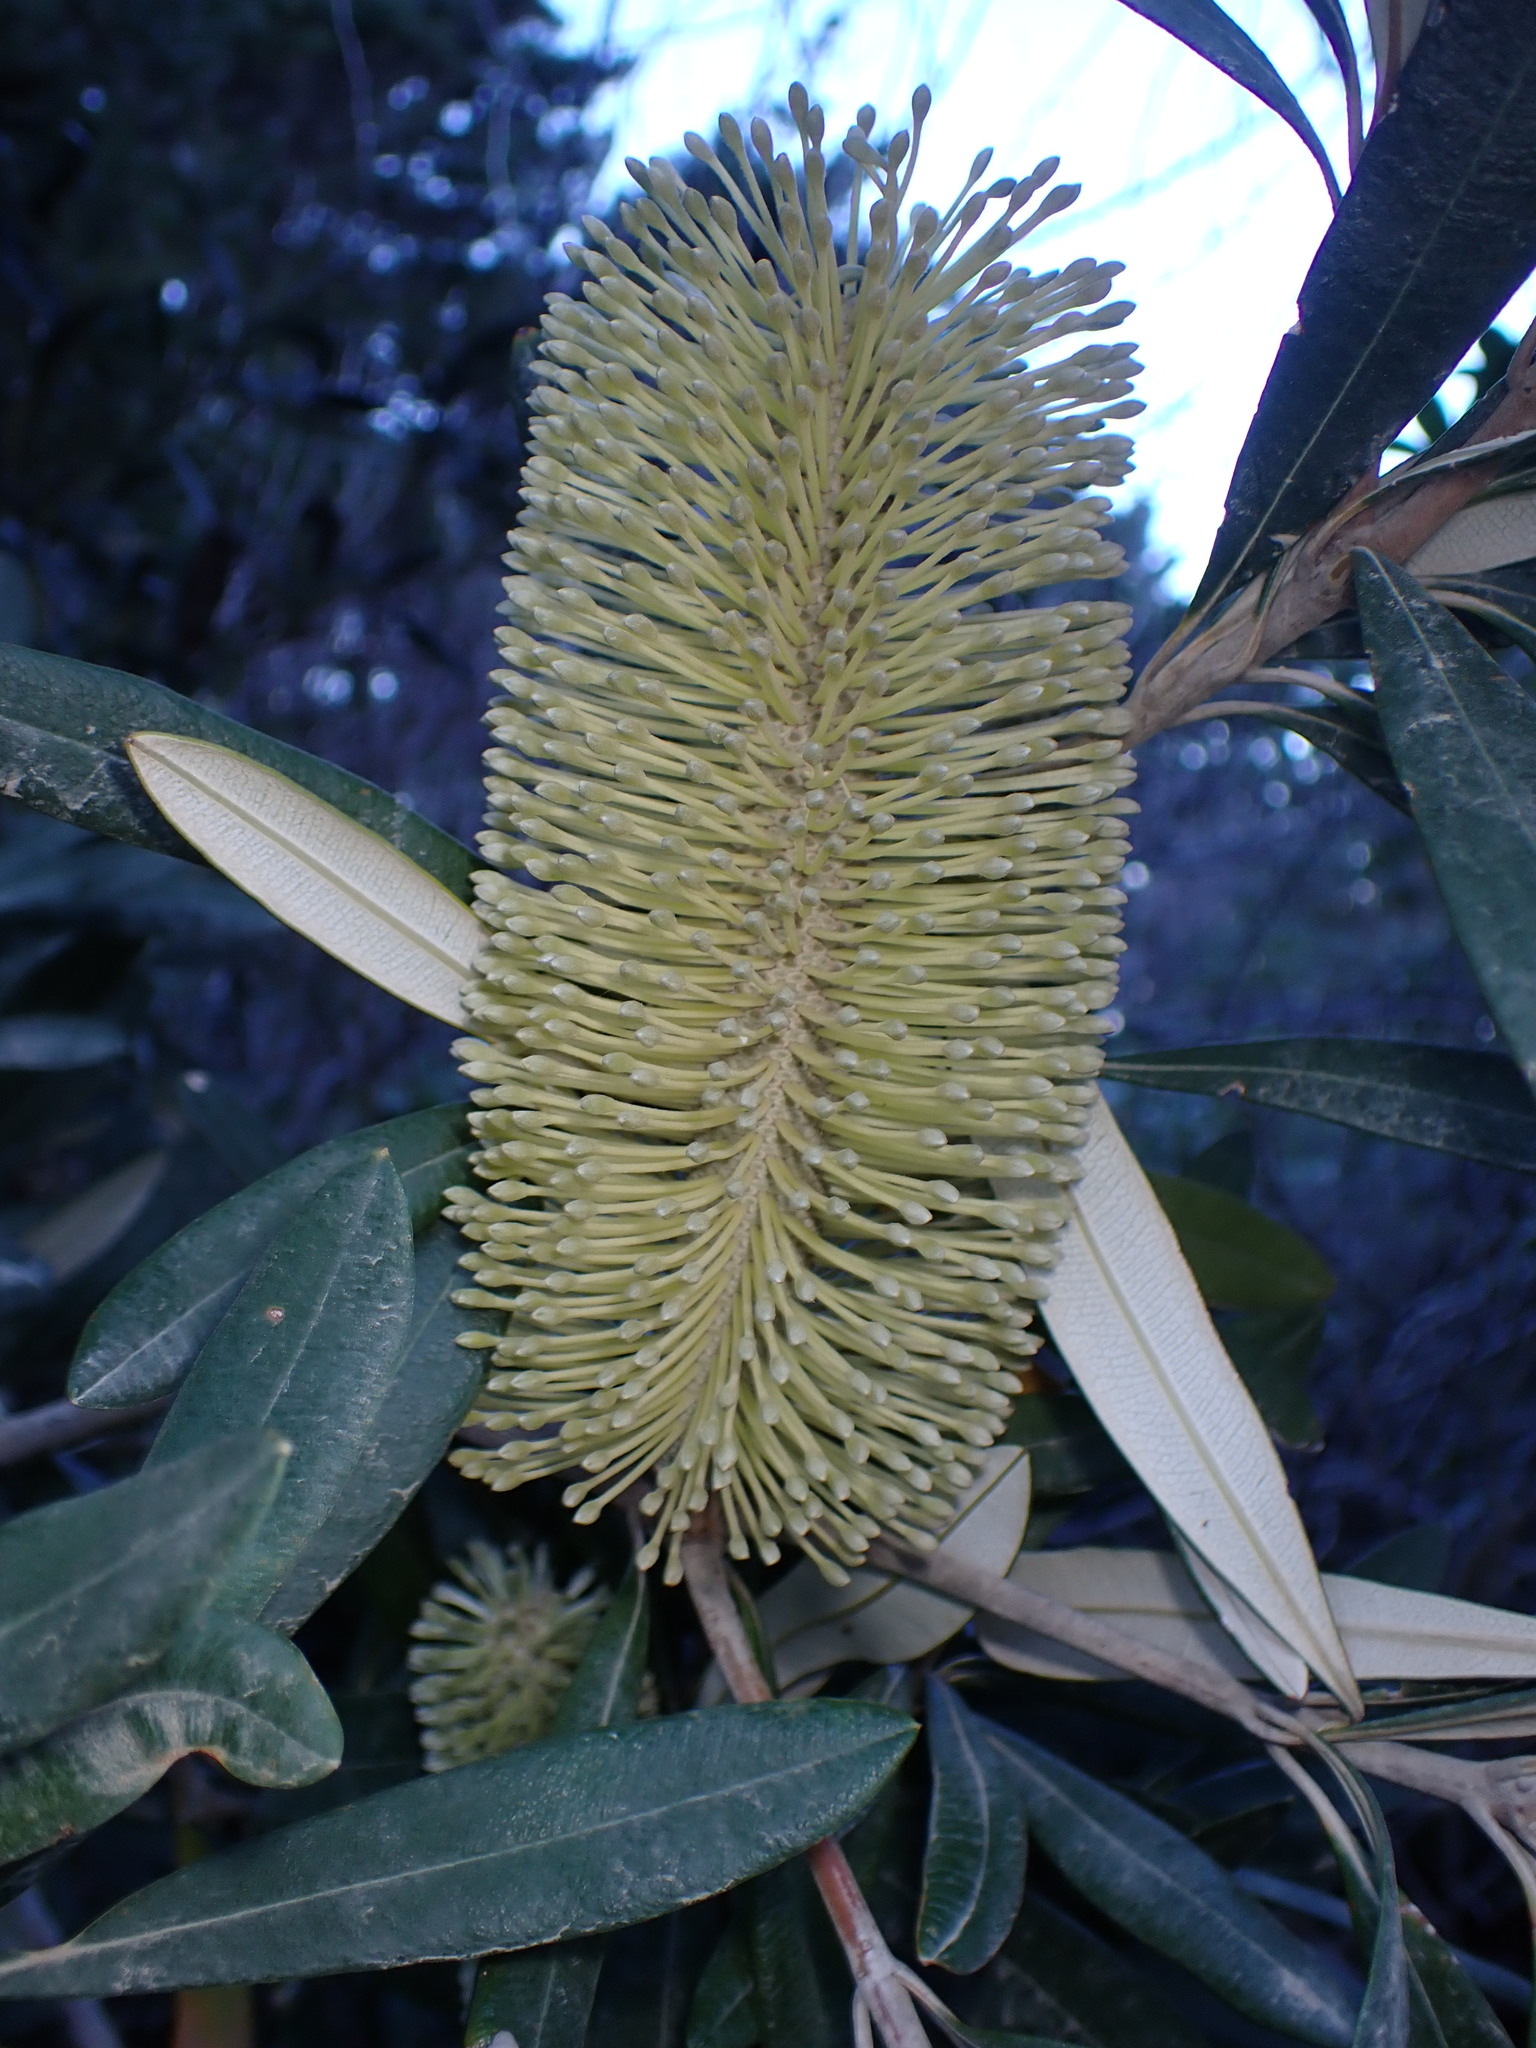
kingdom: Plantae
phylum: Tracheophyta
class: Magnoliopsida
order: Proteales
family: Proteaceae
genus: Banksia
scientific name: Banksia integrifolia
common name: White-honeysuckle
